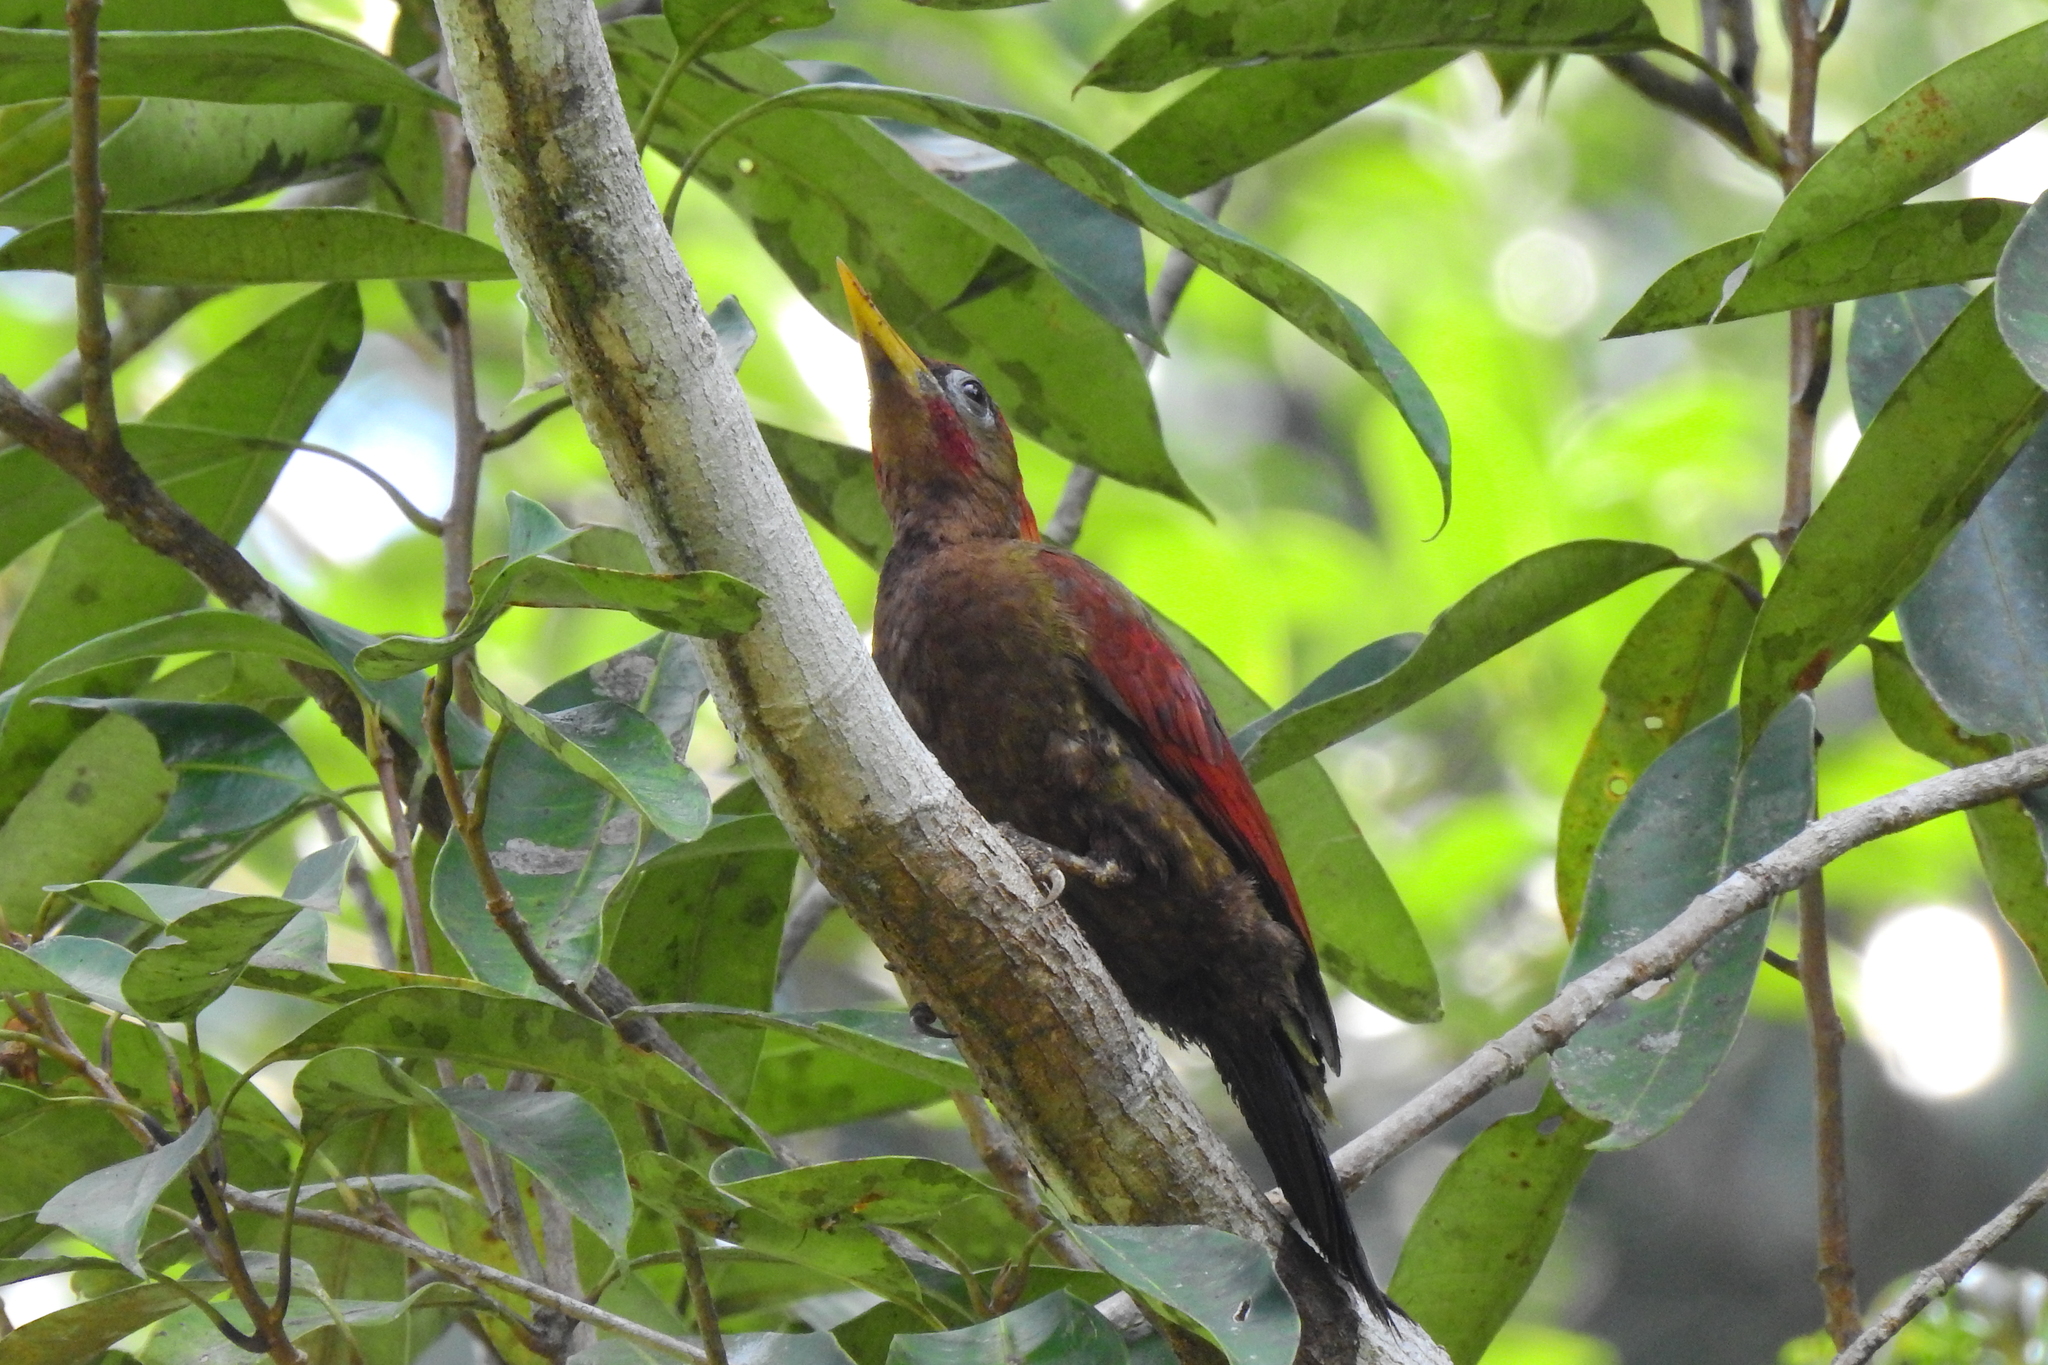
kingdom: Animalia
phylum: Chordata
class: Aves
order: Piciformes
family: Picidae
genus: Picus
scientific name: Picus puniceus
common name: Crimson-winged woodpecker
